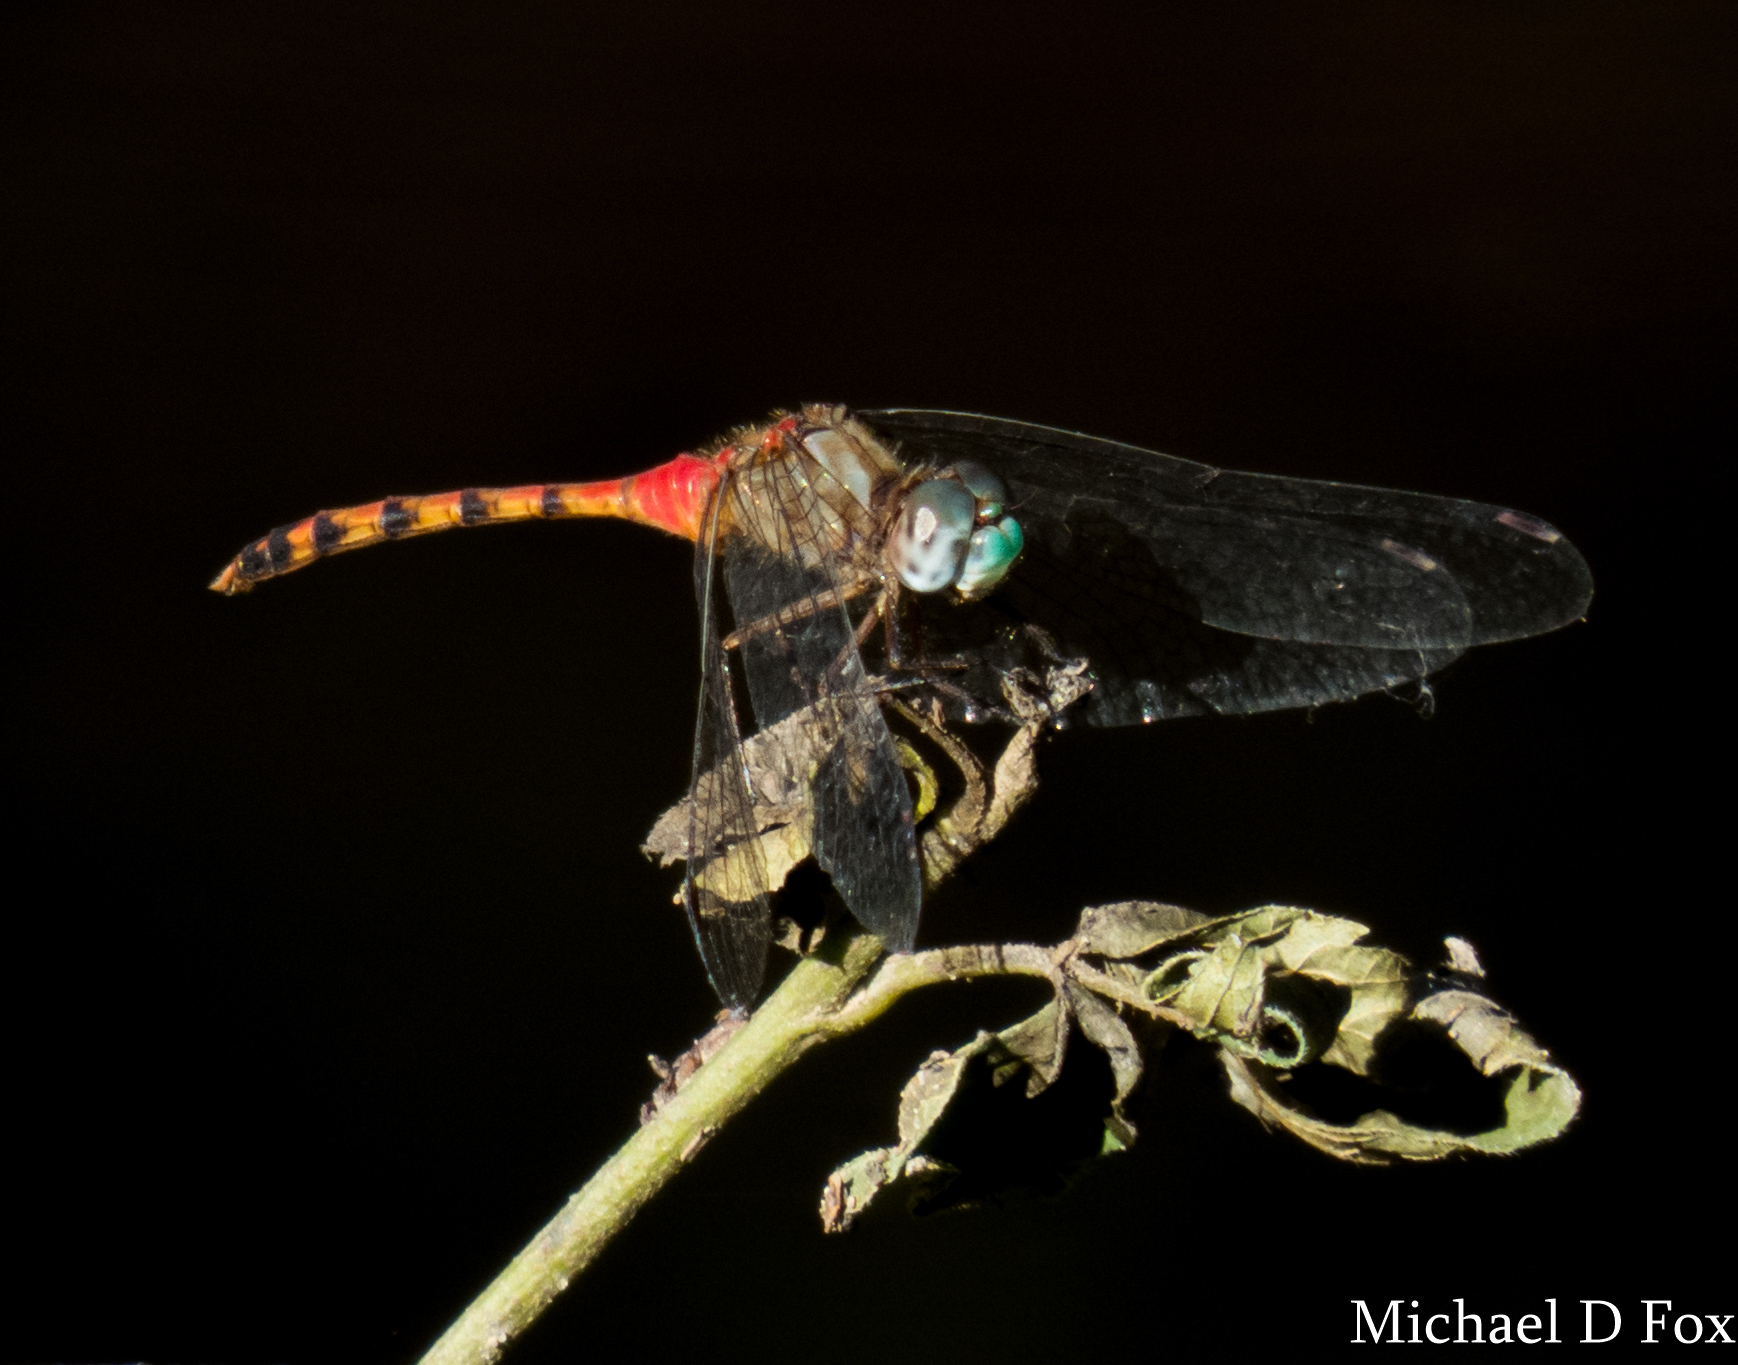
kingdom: Animalia
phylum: Arthropoda
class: Insecta
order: Odonata
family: Libellulidae
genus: Sympetrum
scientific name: Sympetrum ambiguum
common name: Blue-faced meadowhawk
